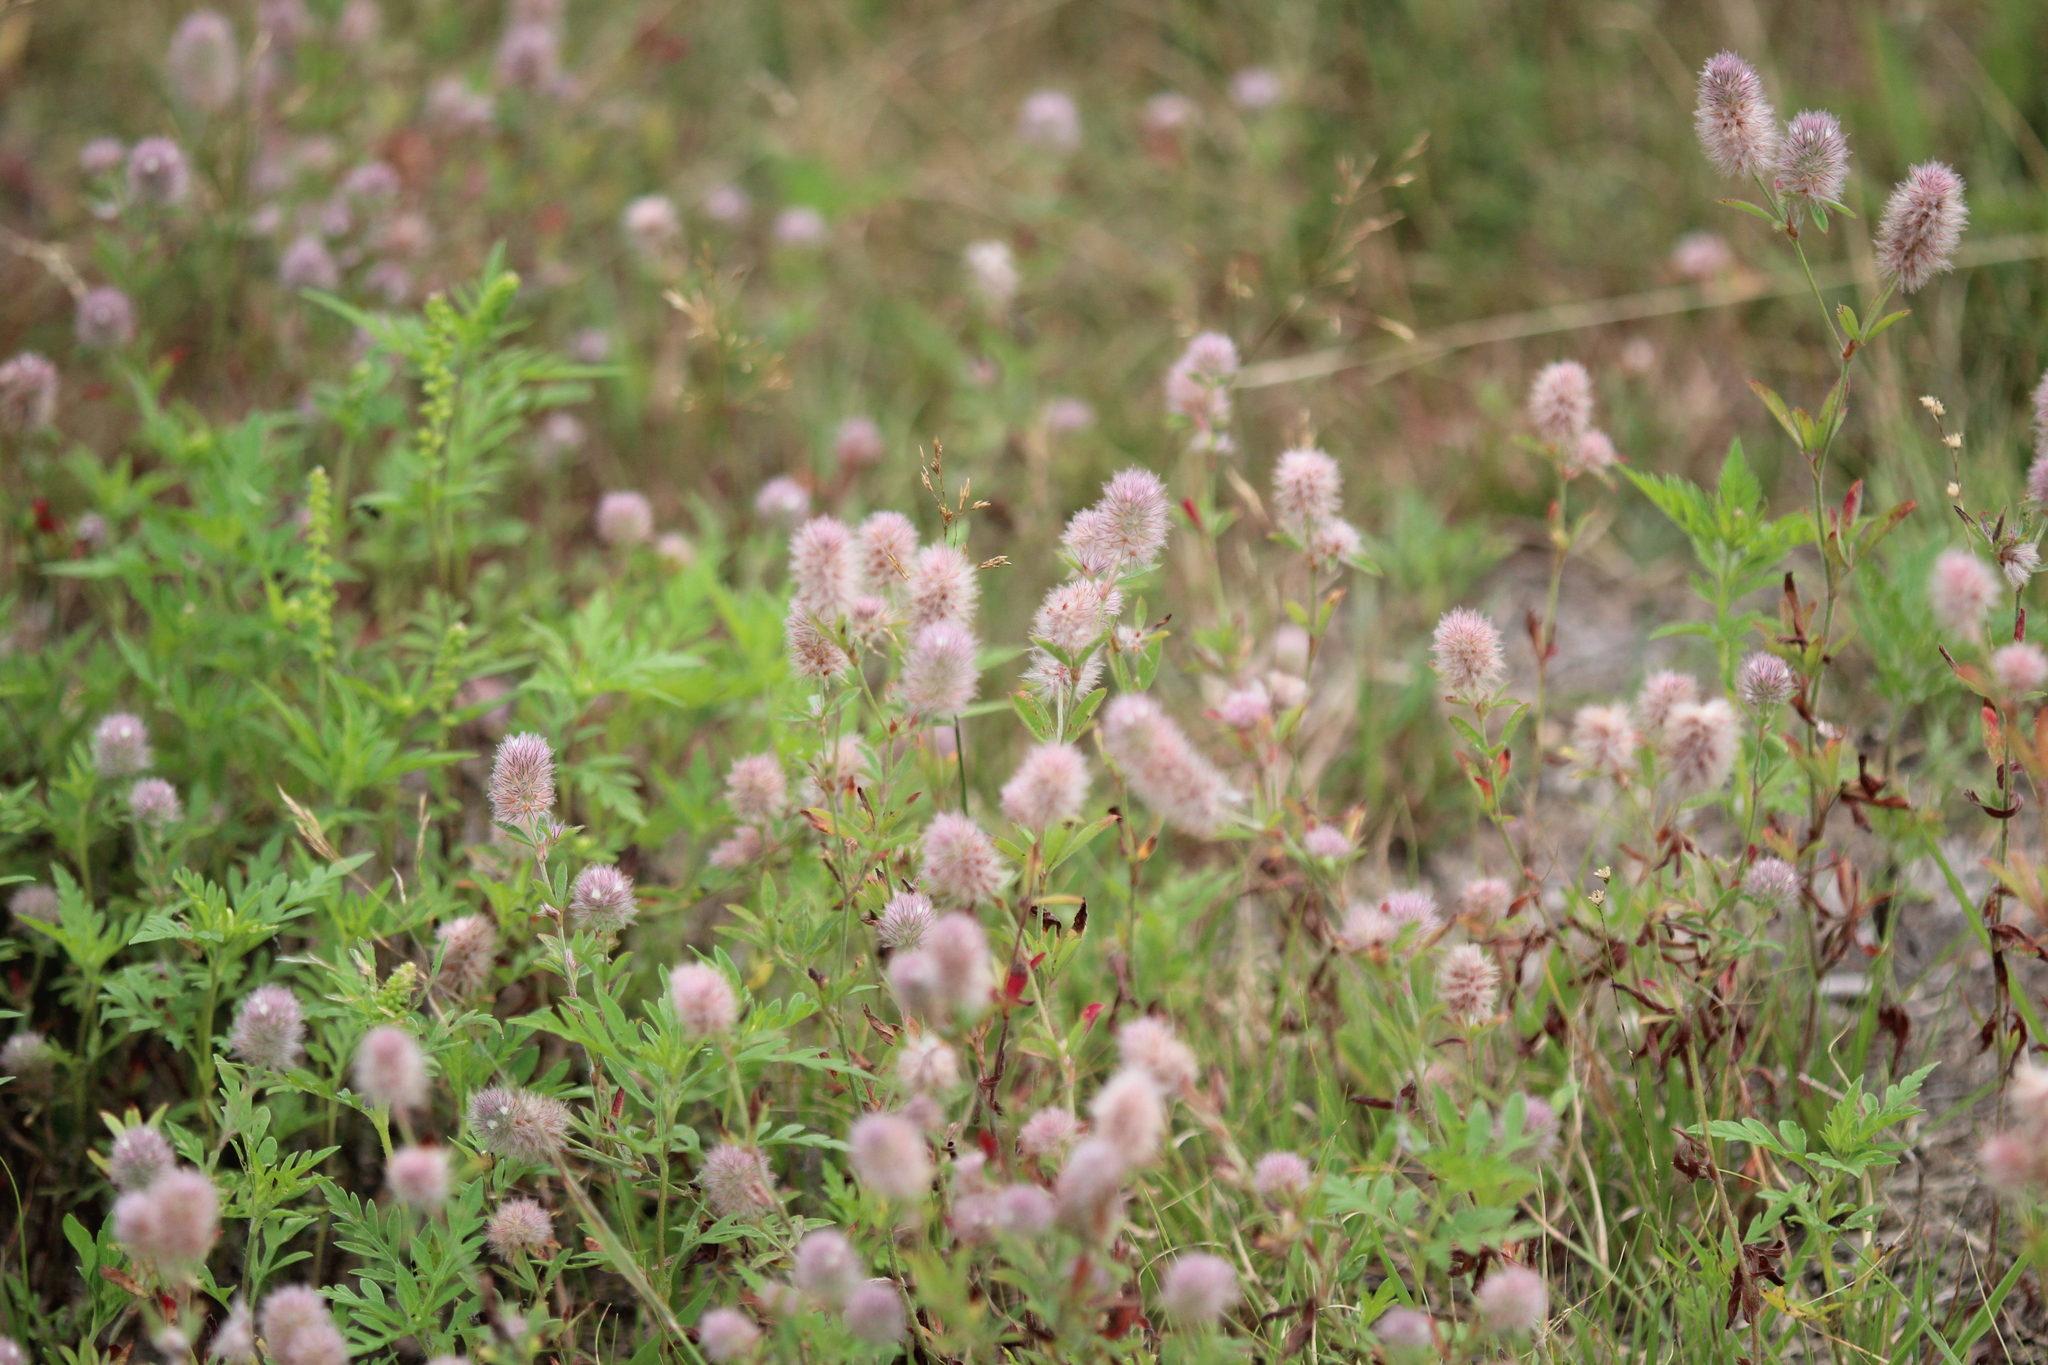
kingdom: Plantae
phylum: Tracheophyta
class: Magnoliopsida
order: Fabales
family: Fabaceae
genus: Trifolium
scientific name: Trifolium arvense
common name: Hare's-foot clover
